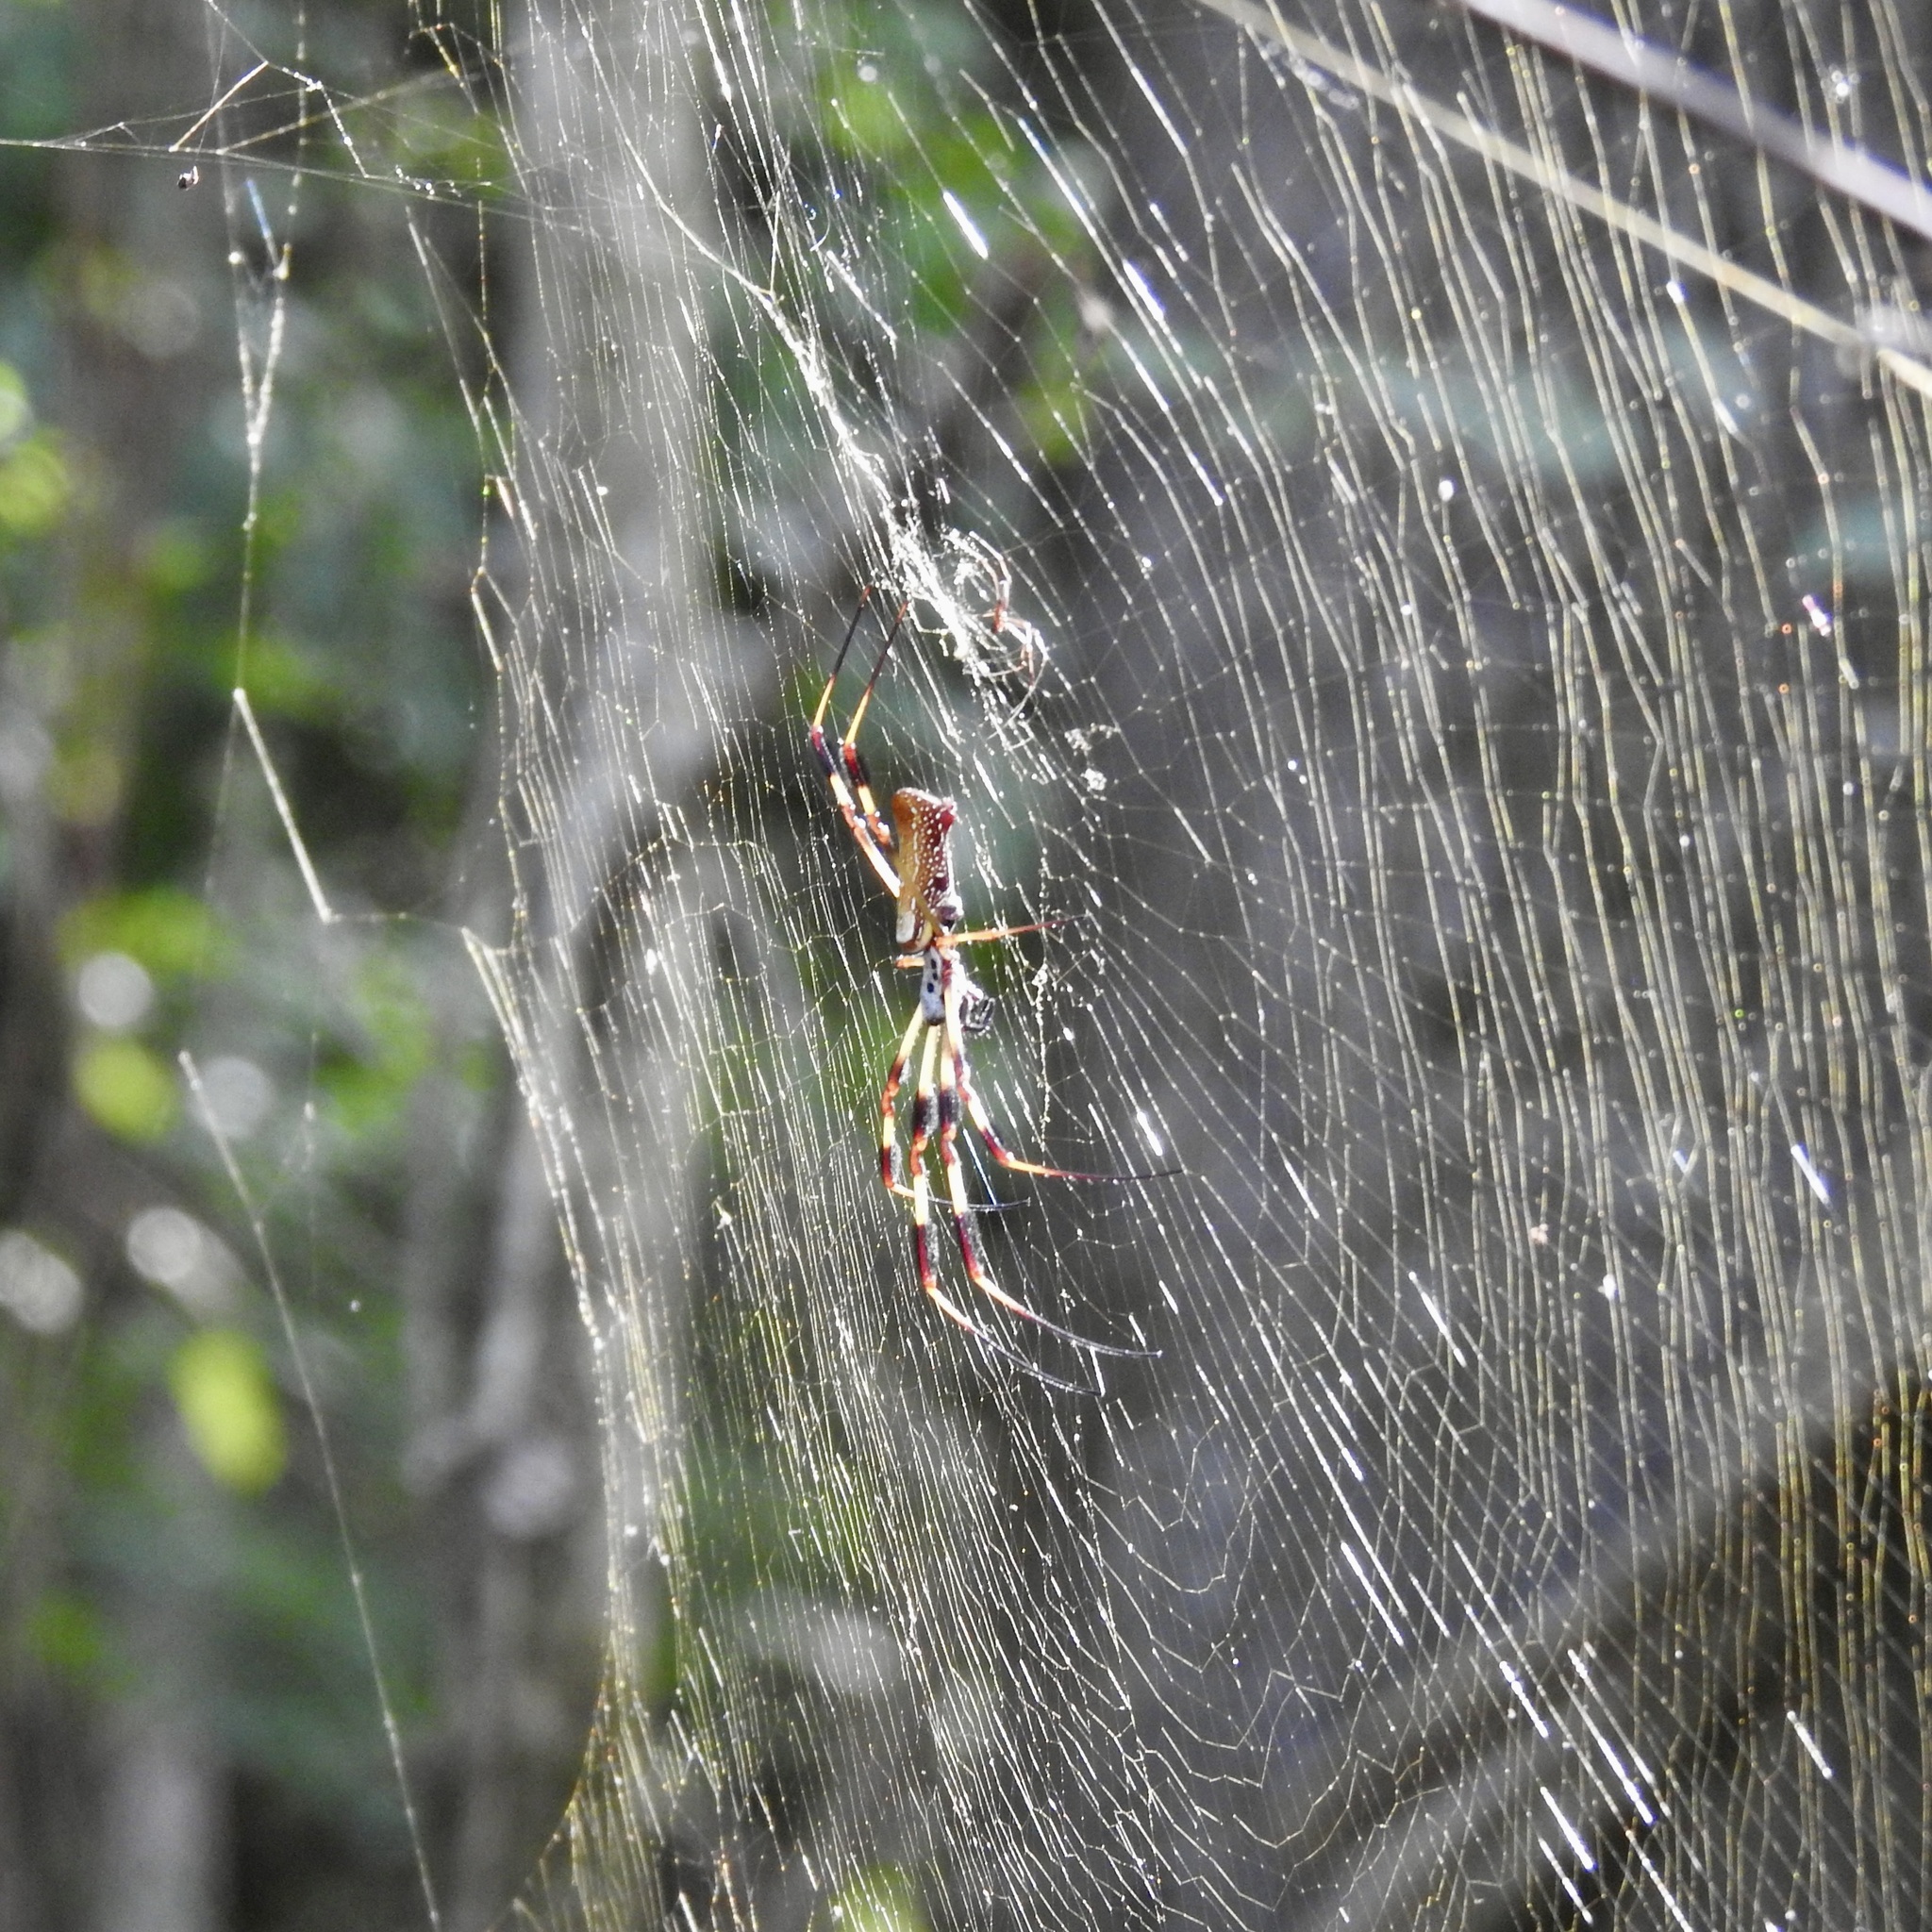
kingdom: Animalia
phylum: Arthropoda
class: Arachnida
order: Araneae
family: Araneidae
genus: Trichonephila
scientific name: Trichonephila clavipes
